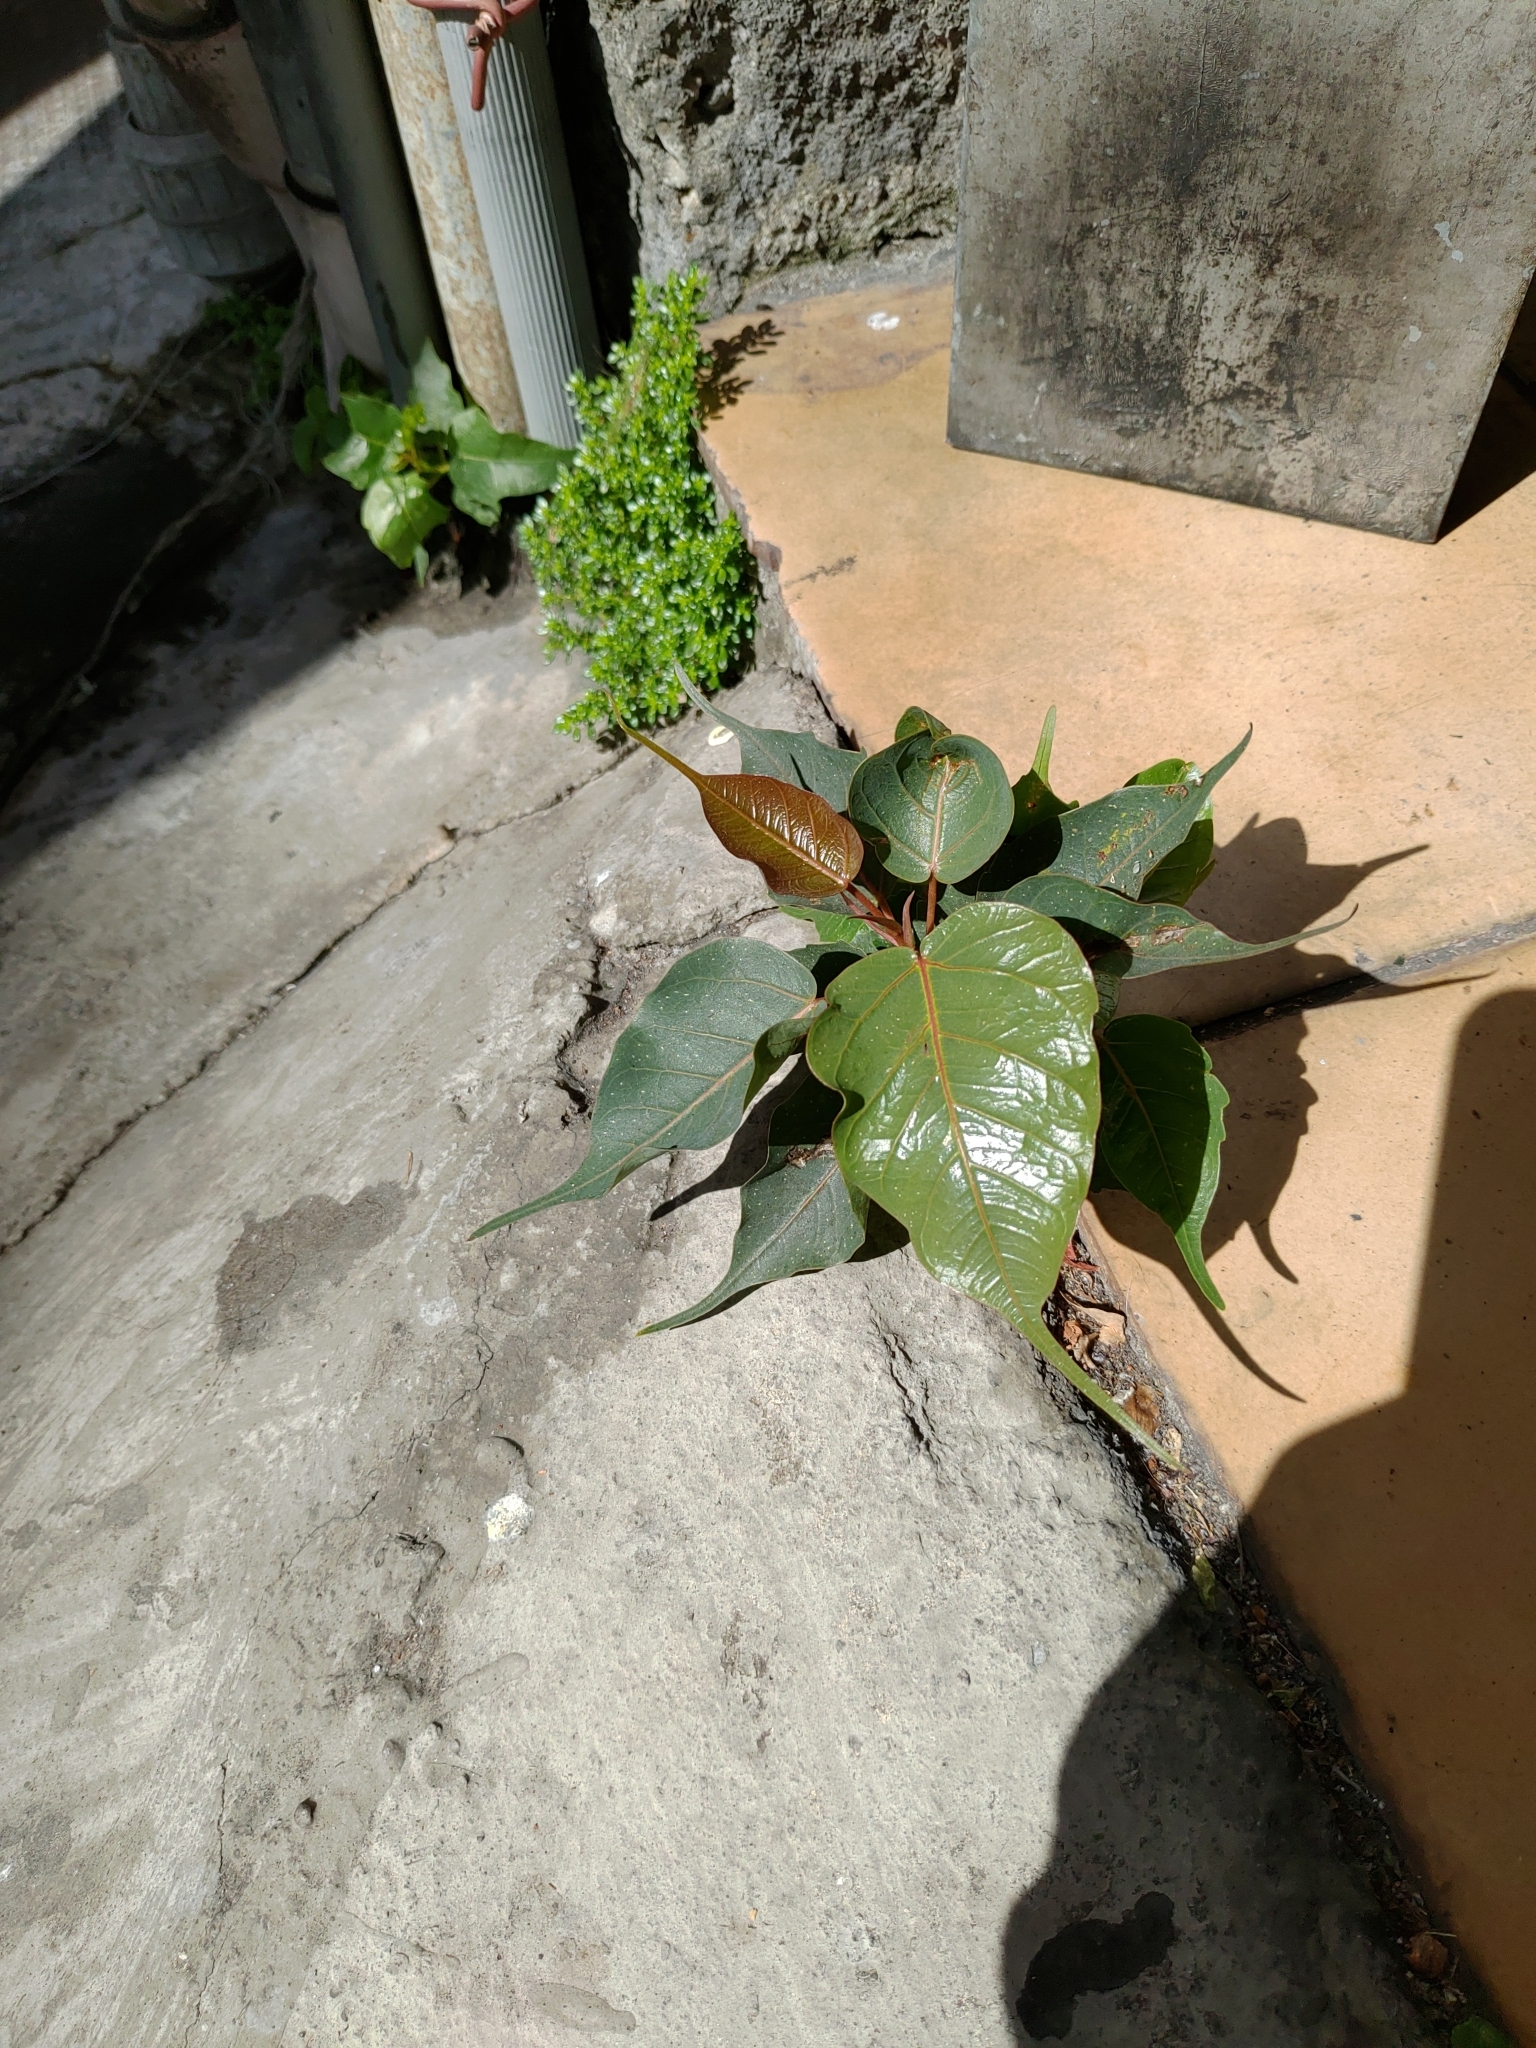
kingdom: Plantae
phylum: Tracheophyta
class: Magnoliopsida
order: Rosales
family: Moraceae
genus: Ficus
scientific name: Ficus religiosa
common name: Bodhi tree
